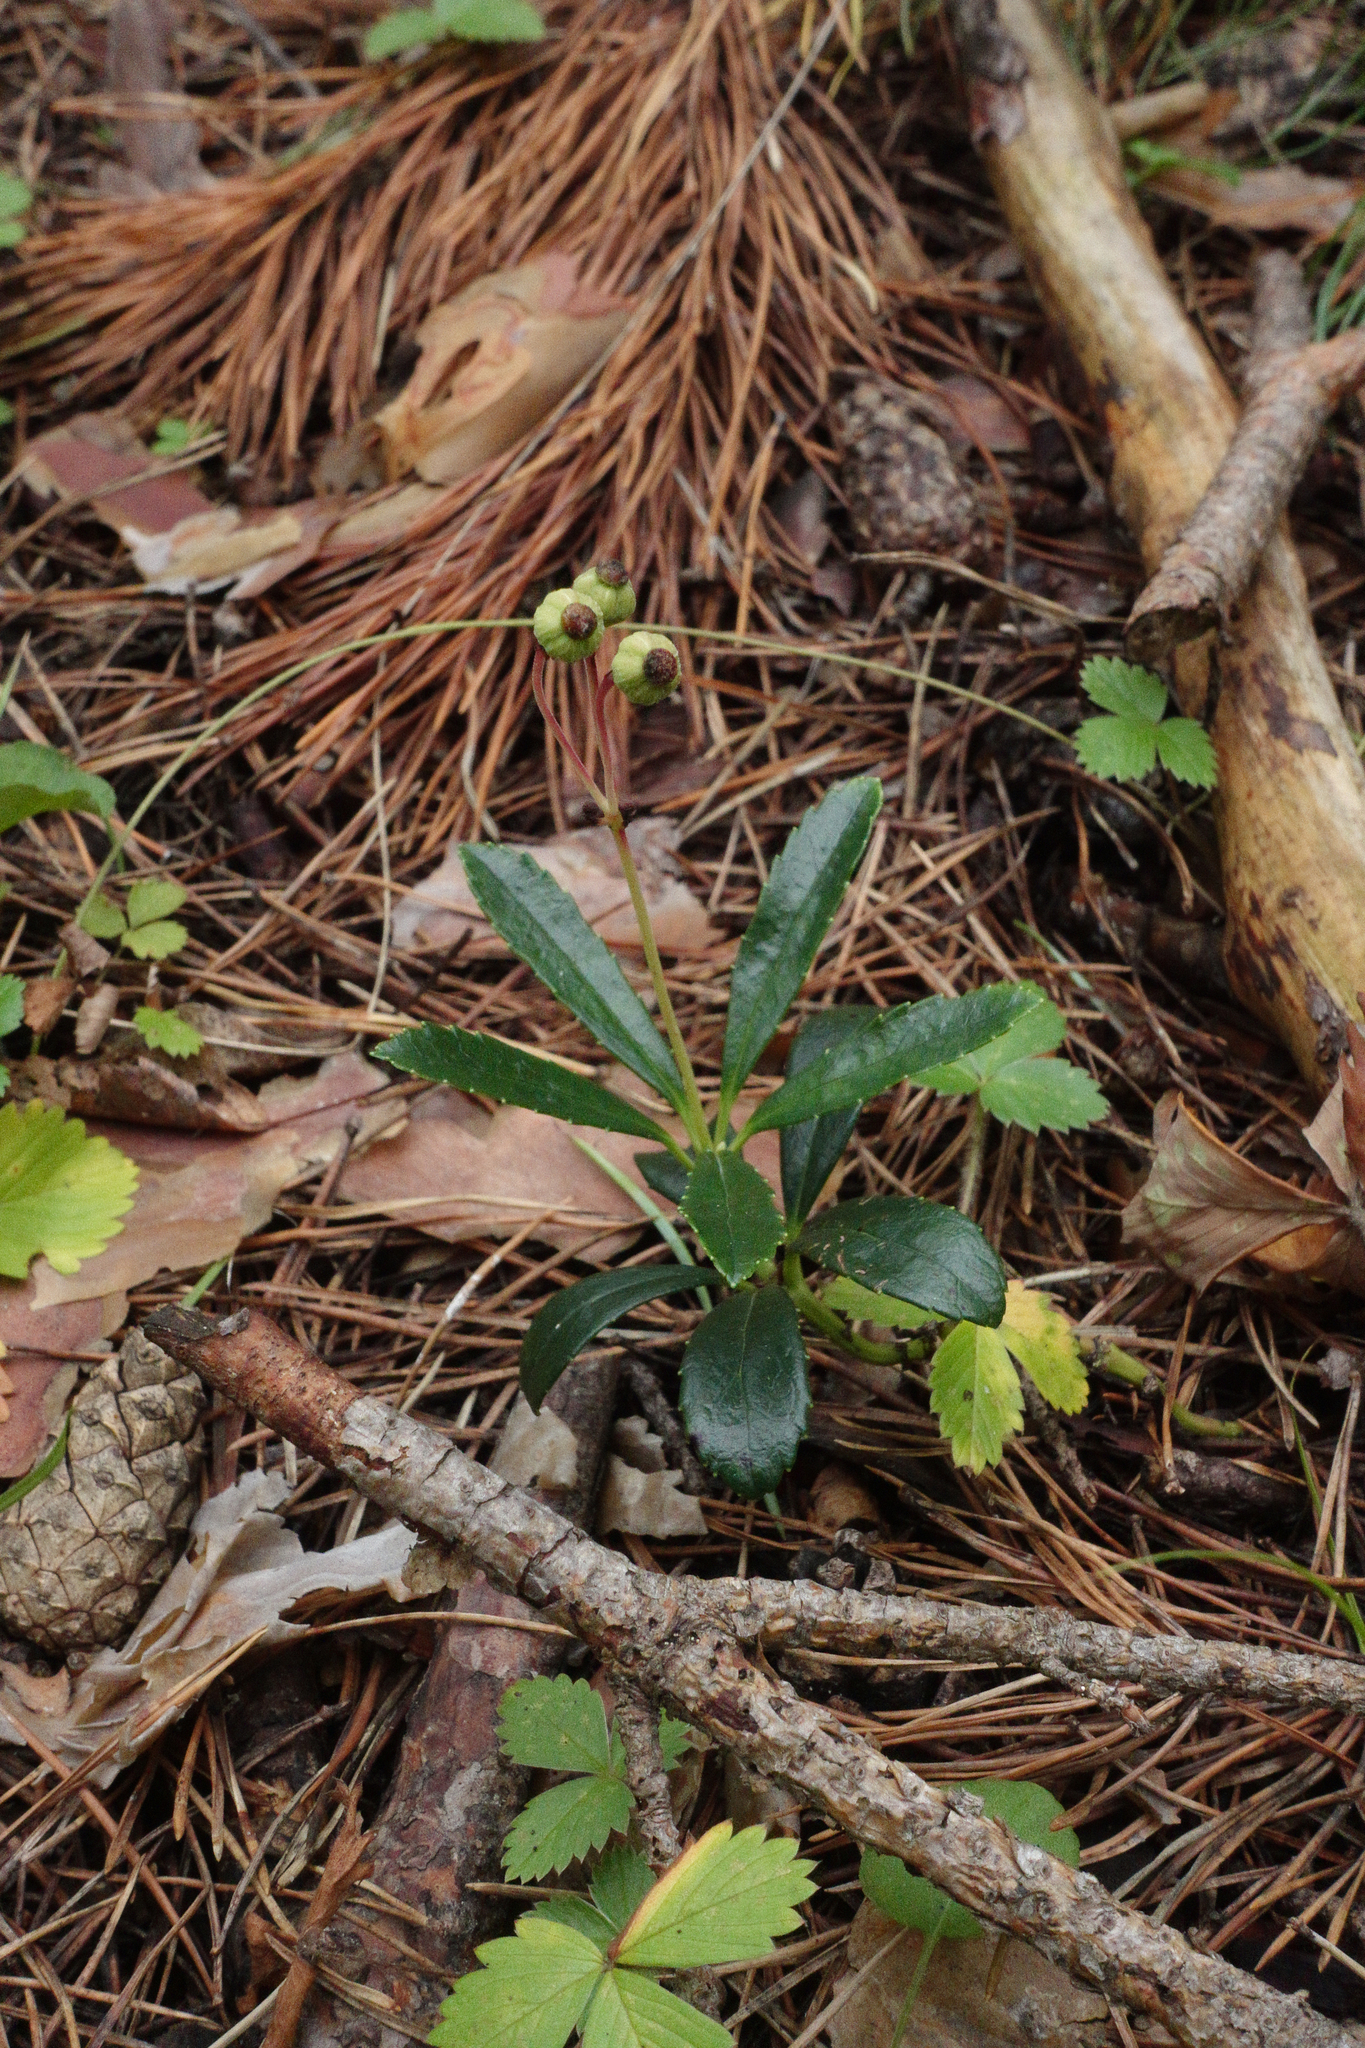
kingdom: Plantae
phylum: Tracheophyta
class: Magnoliopsida
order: Ericales
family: Ericaceae
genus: Chimaphila
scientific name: Chimaphila umbellata
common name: Pipsissewa
